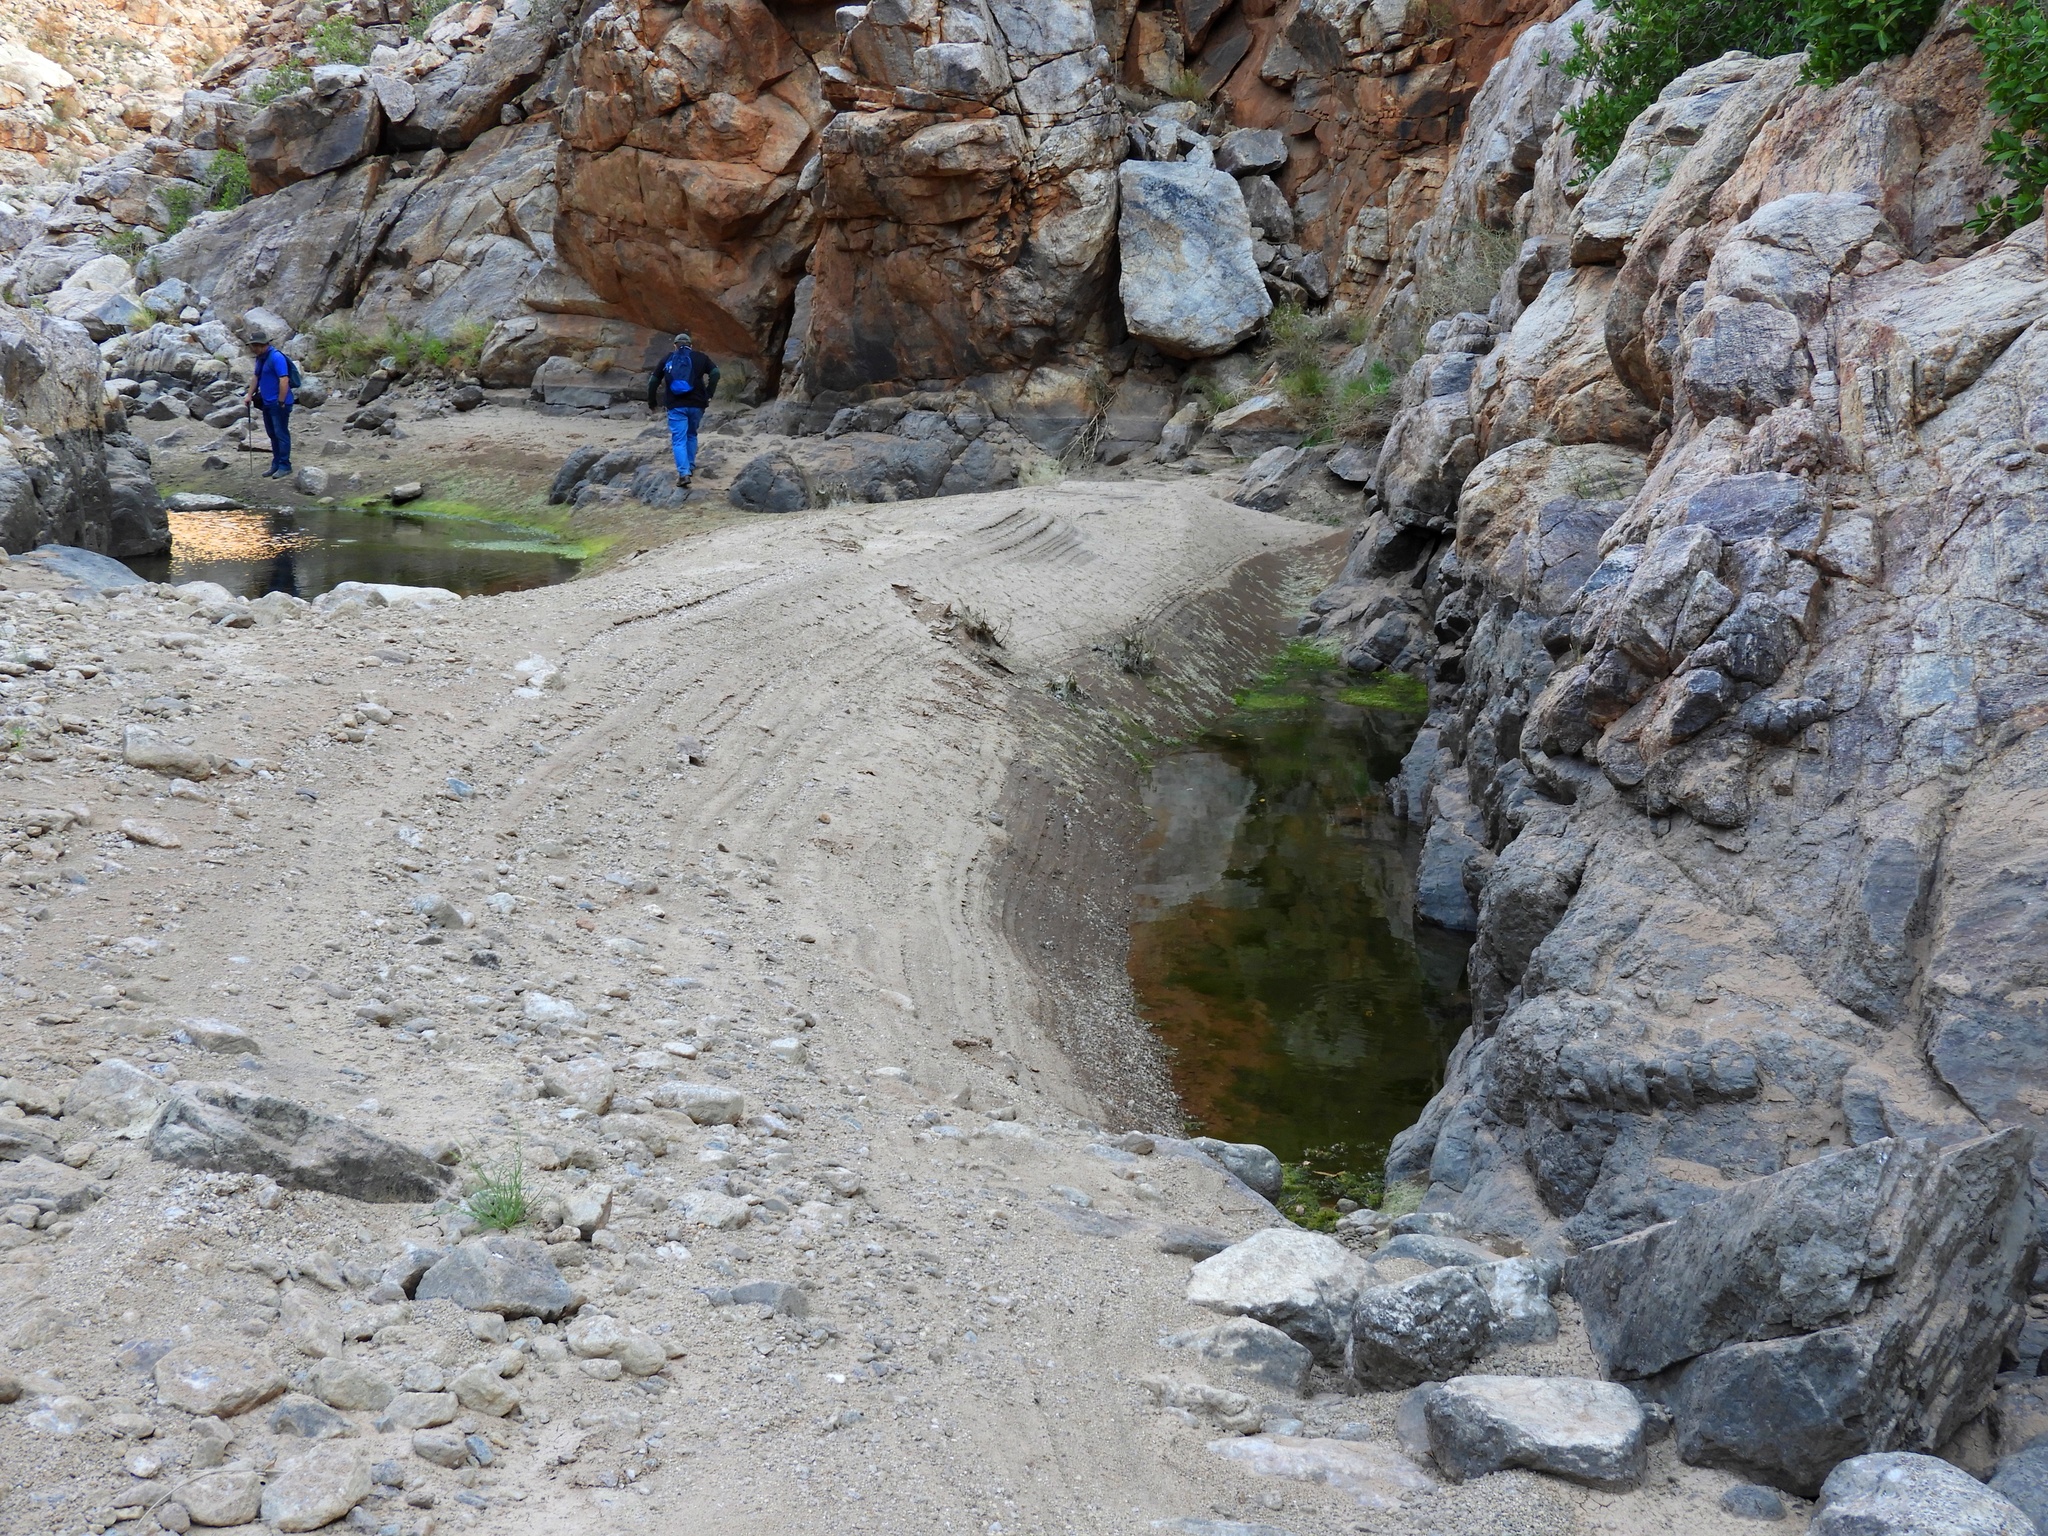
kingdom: Animalia
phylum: Chordata
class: Amphibia
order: Anura
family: Microhylidae
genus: Phrynomantis
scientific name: Phrynomantis annectens
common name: Marbled rubber frog
